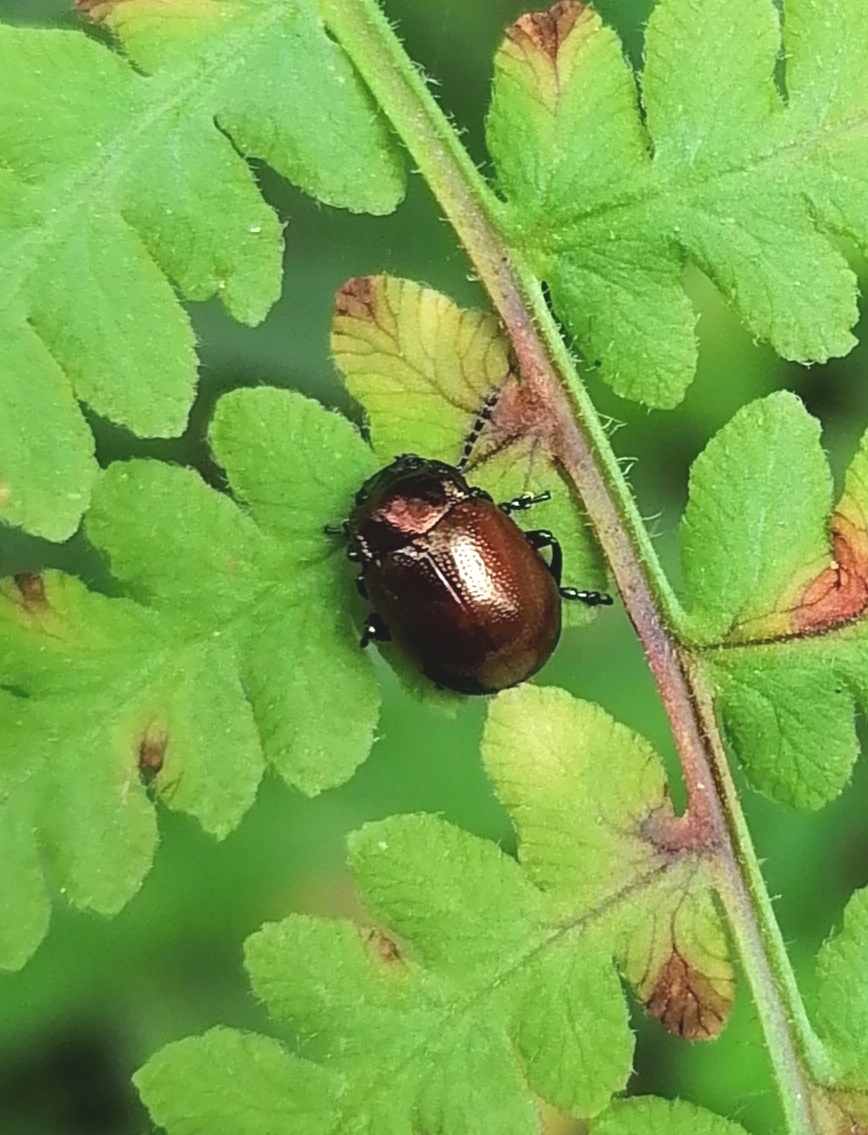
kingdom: Animalia
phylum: Arthropoda
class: Insecta
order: Coleoptera
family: Chrysomelidae
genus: Chrysomela
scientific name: Chrysomela polita
